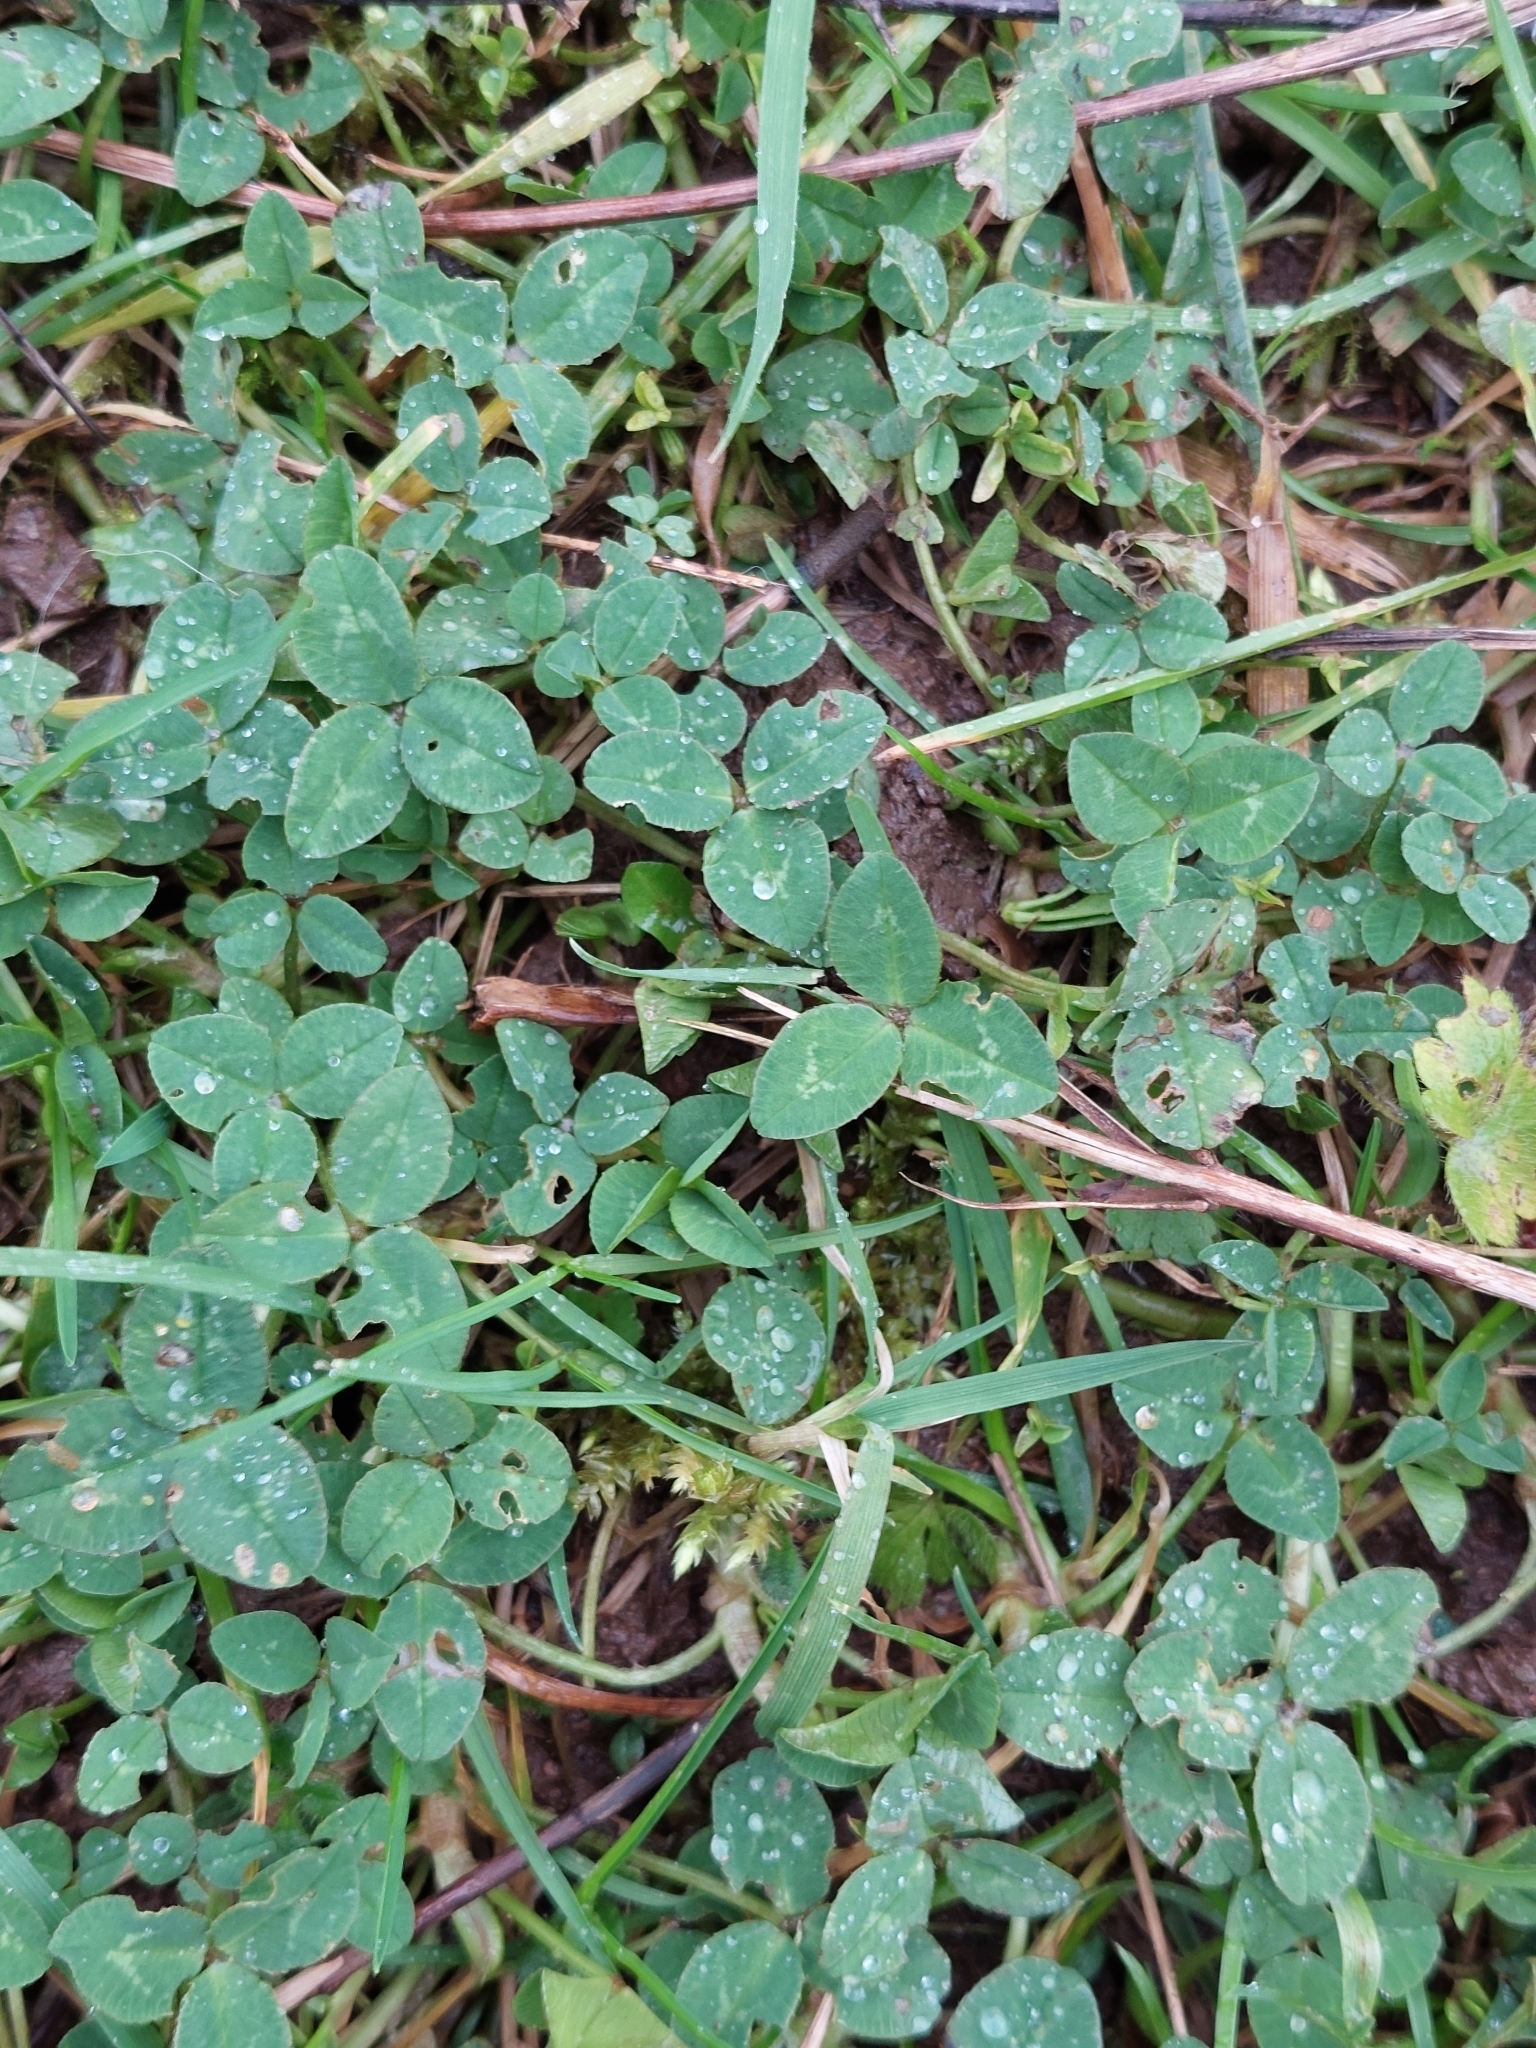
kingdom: Plantae
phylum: Tracheophyta
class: Magnoliopsida
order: Fabales
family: Fabaceae
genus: Trifolium
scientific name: Trifolium repens
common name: White clover
